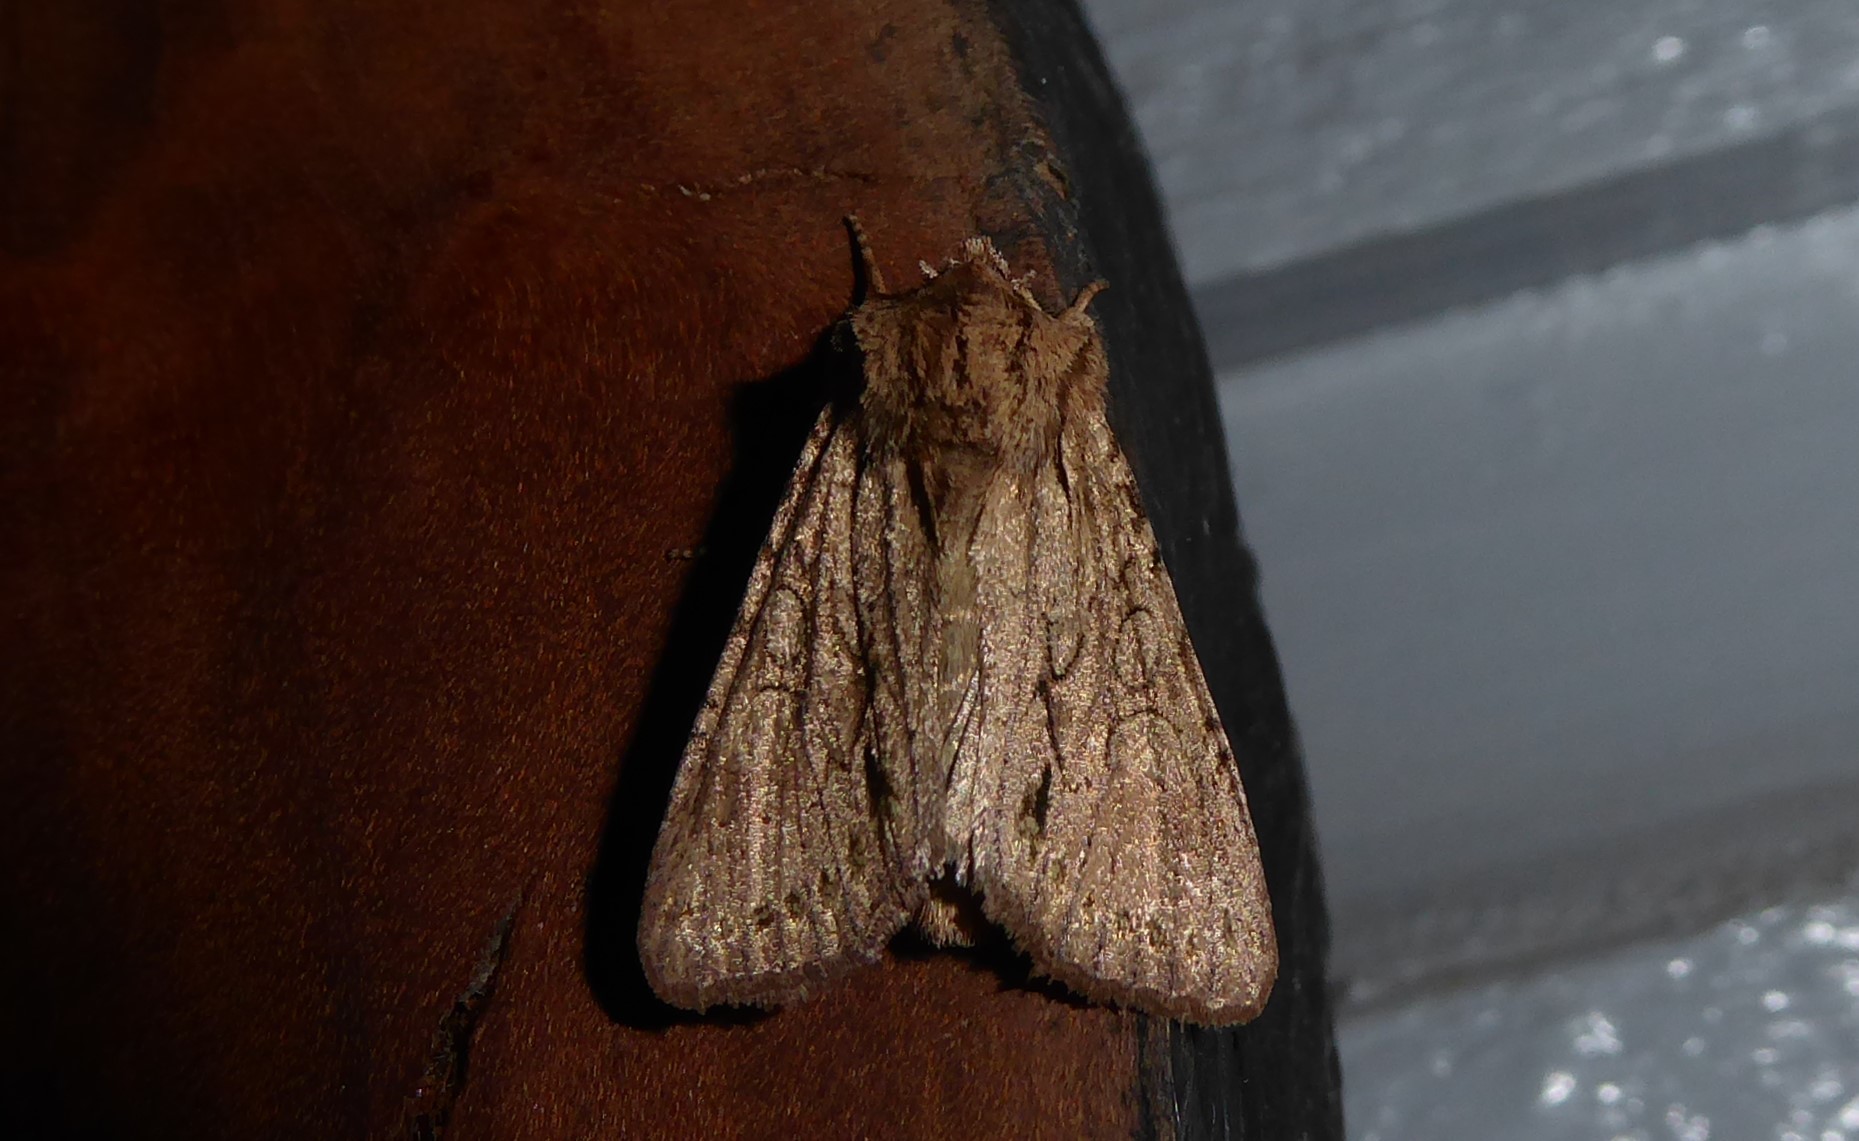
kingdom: Animalia
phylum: Arthropoda
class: Insecta
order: Lepidoptera
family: Noctuidae
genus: Ichneutica
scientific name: Ichneutica
